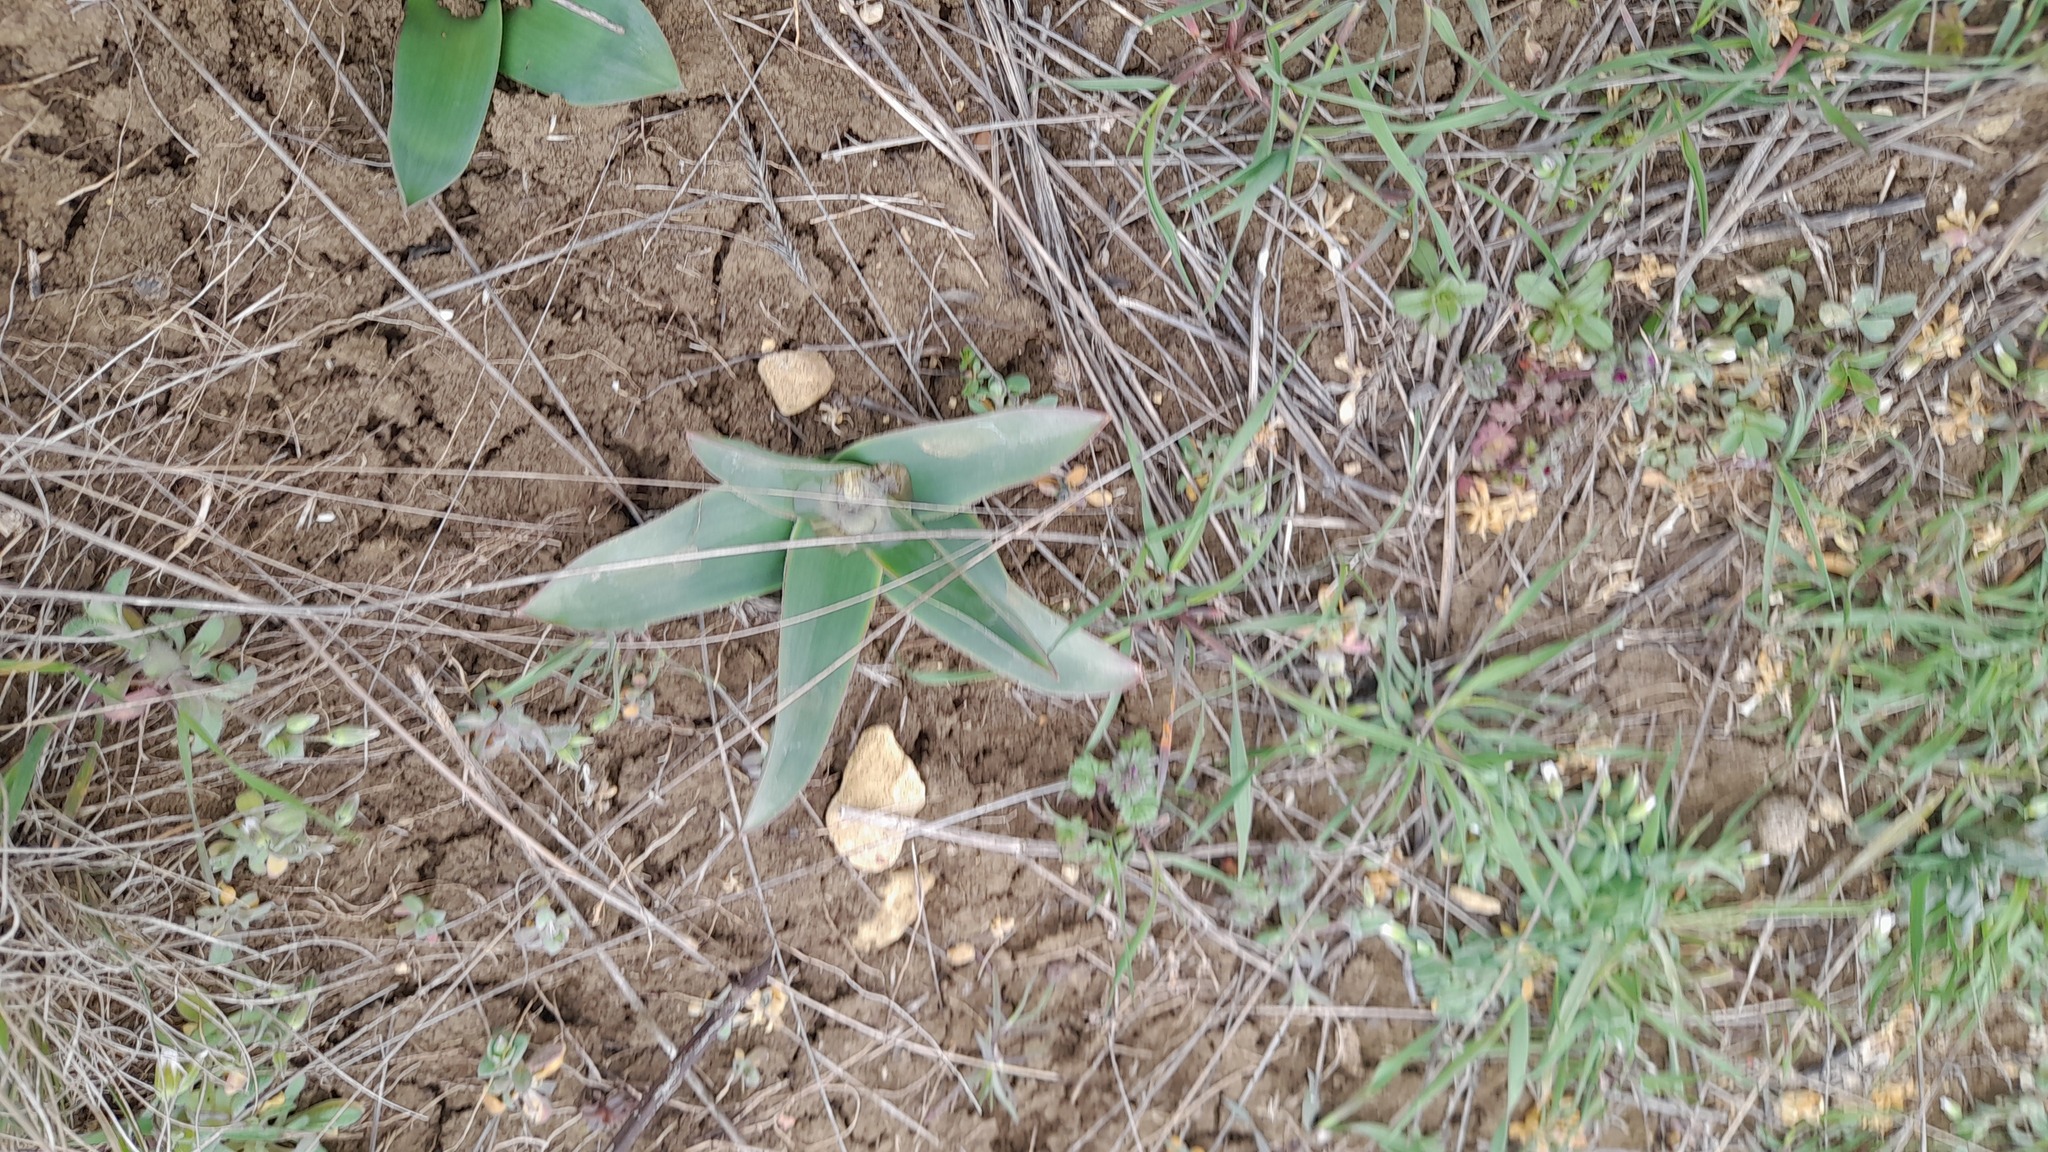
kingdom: Plantae
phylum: Tracheophyta
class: Liliopsida
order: Asparagales
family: Asparagaceae
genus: Bellevalia
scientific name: Bellevalia speciosa
